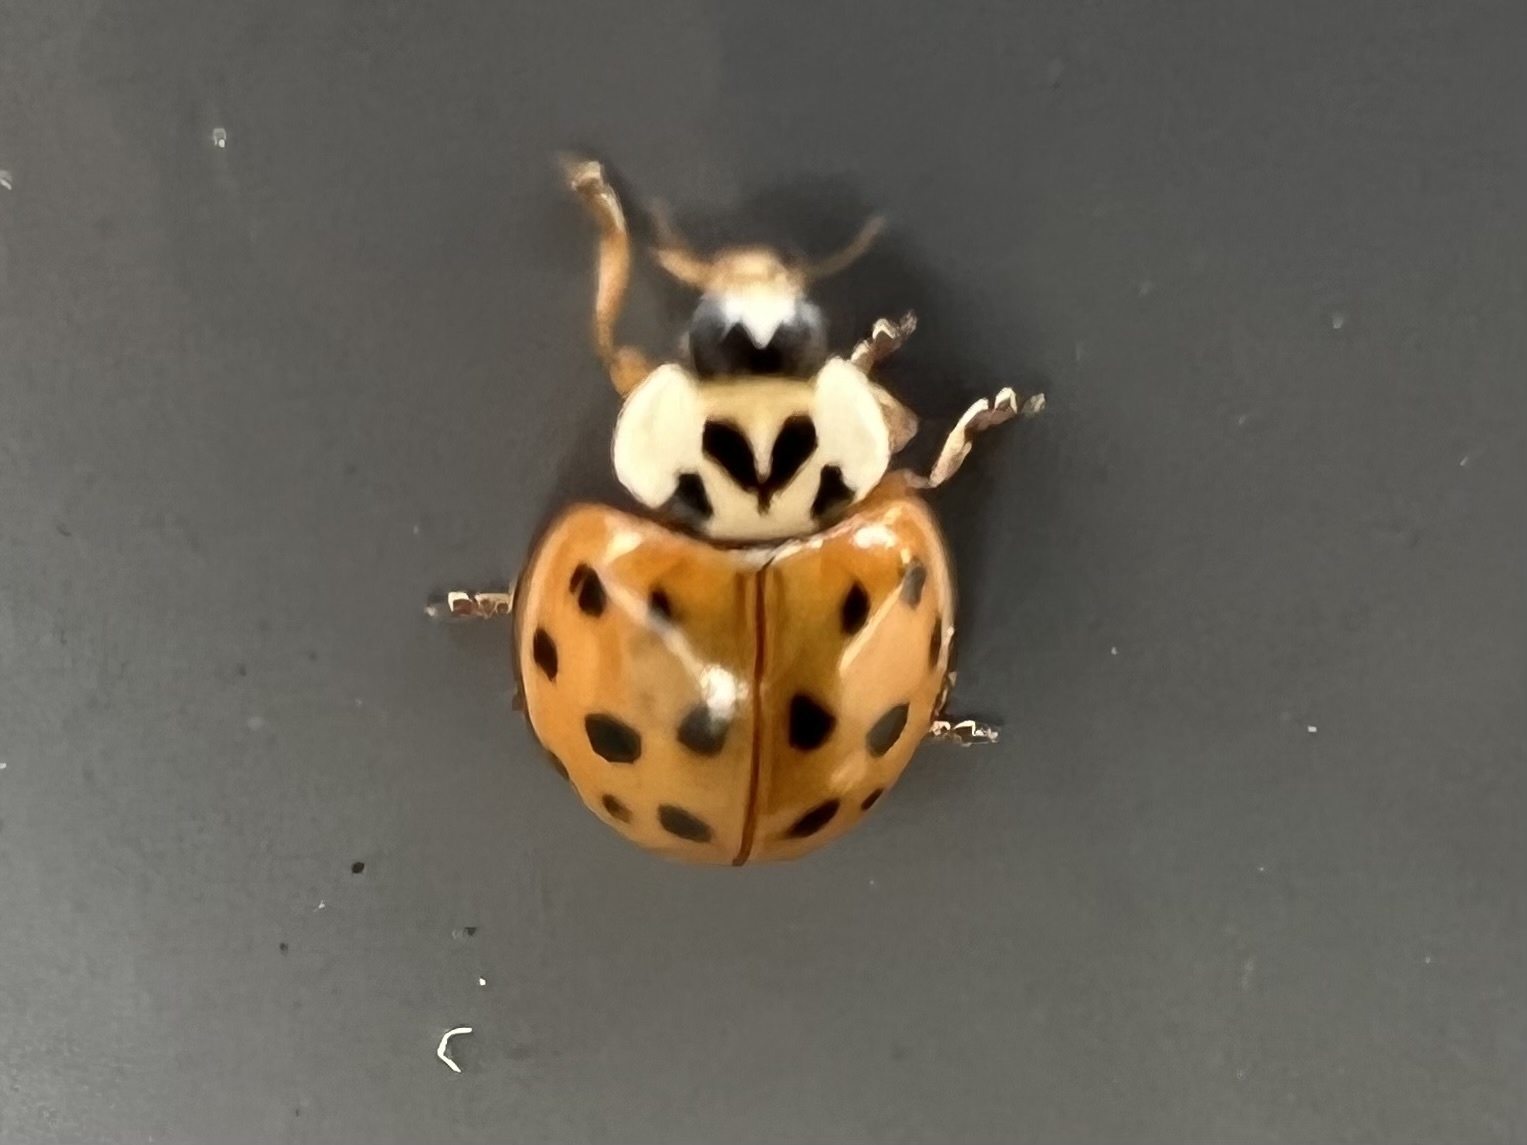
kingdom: Animalia
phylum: Arthropoda
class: Insecta
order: Coleoptera
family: Coccinellidae
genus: Harmonia
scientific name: Harmonia axyridis
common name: Harlequin ladybird
